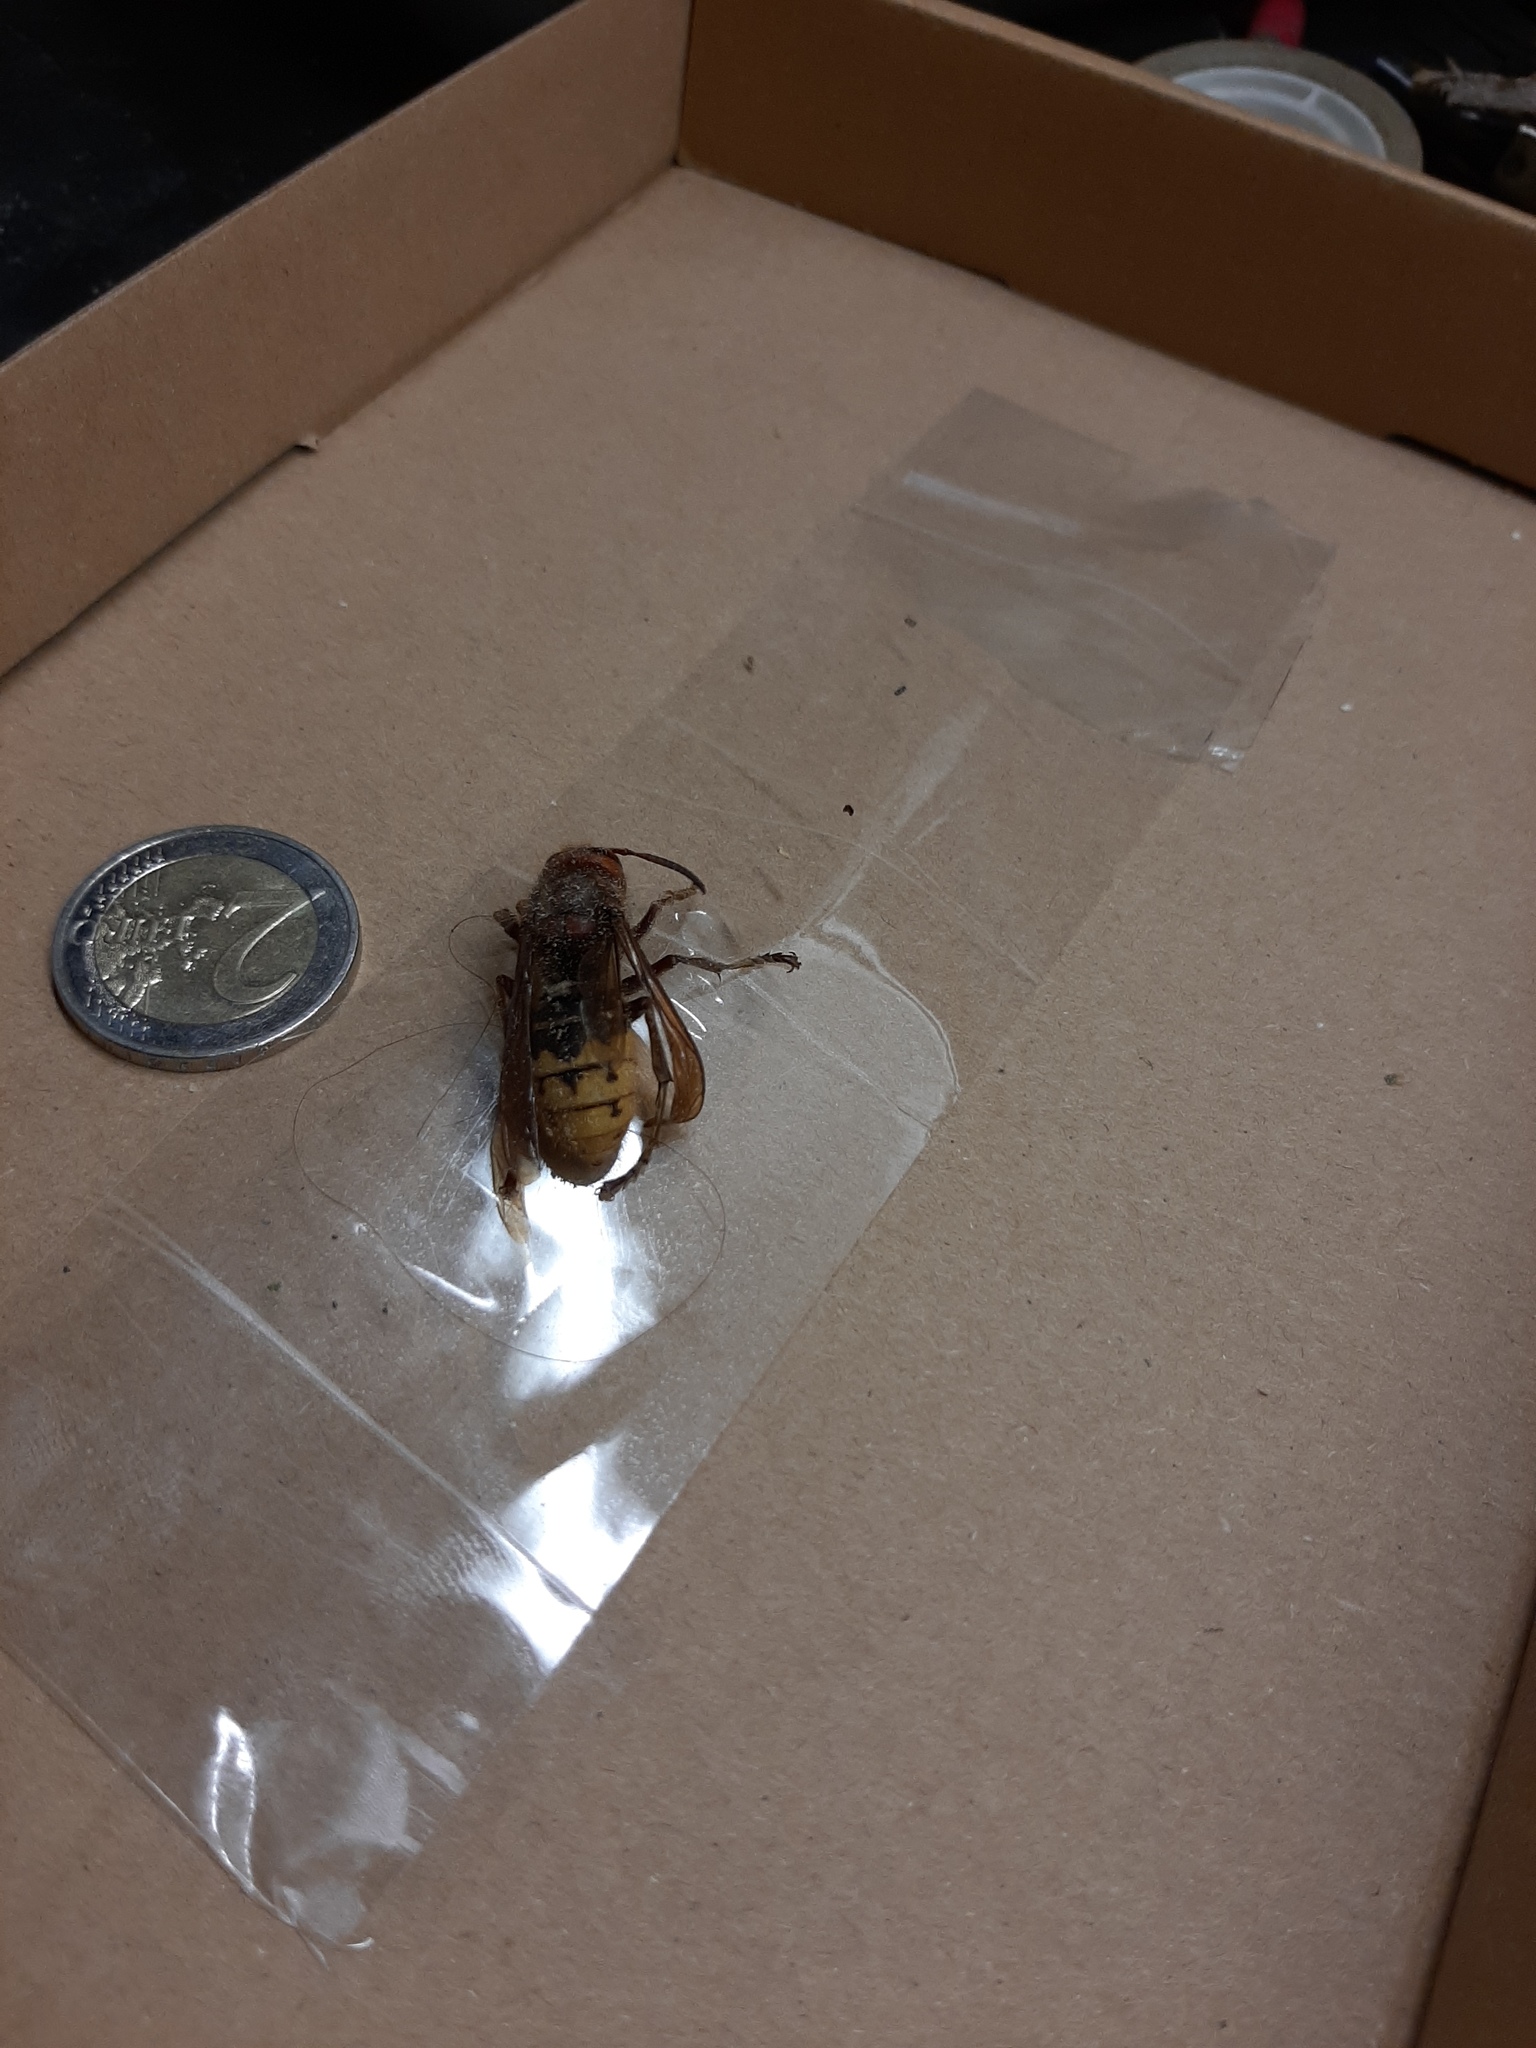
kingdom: Animalia
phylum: Arthropoda
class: Insecta
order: Hymenoptera
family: Vespidae
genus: Vespa
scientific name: Vespa crabro
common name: Hornet
